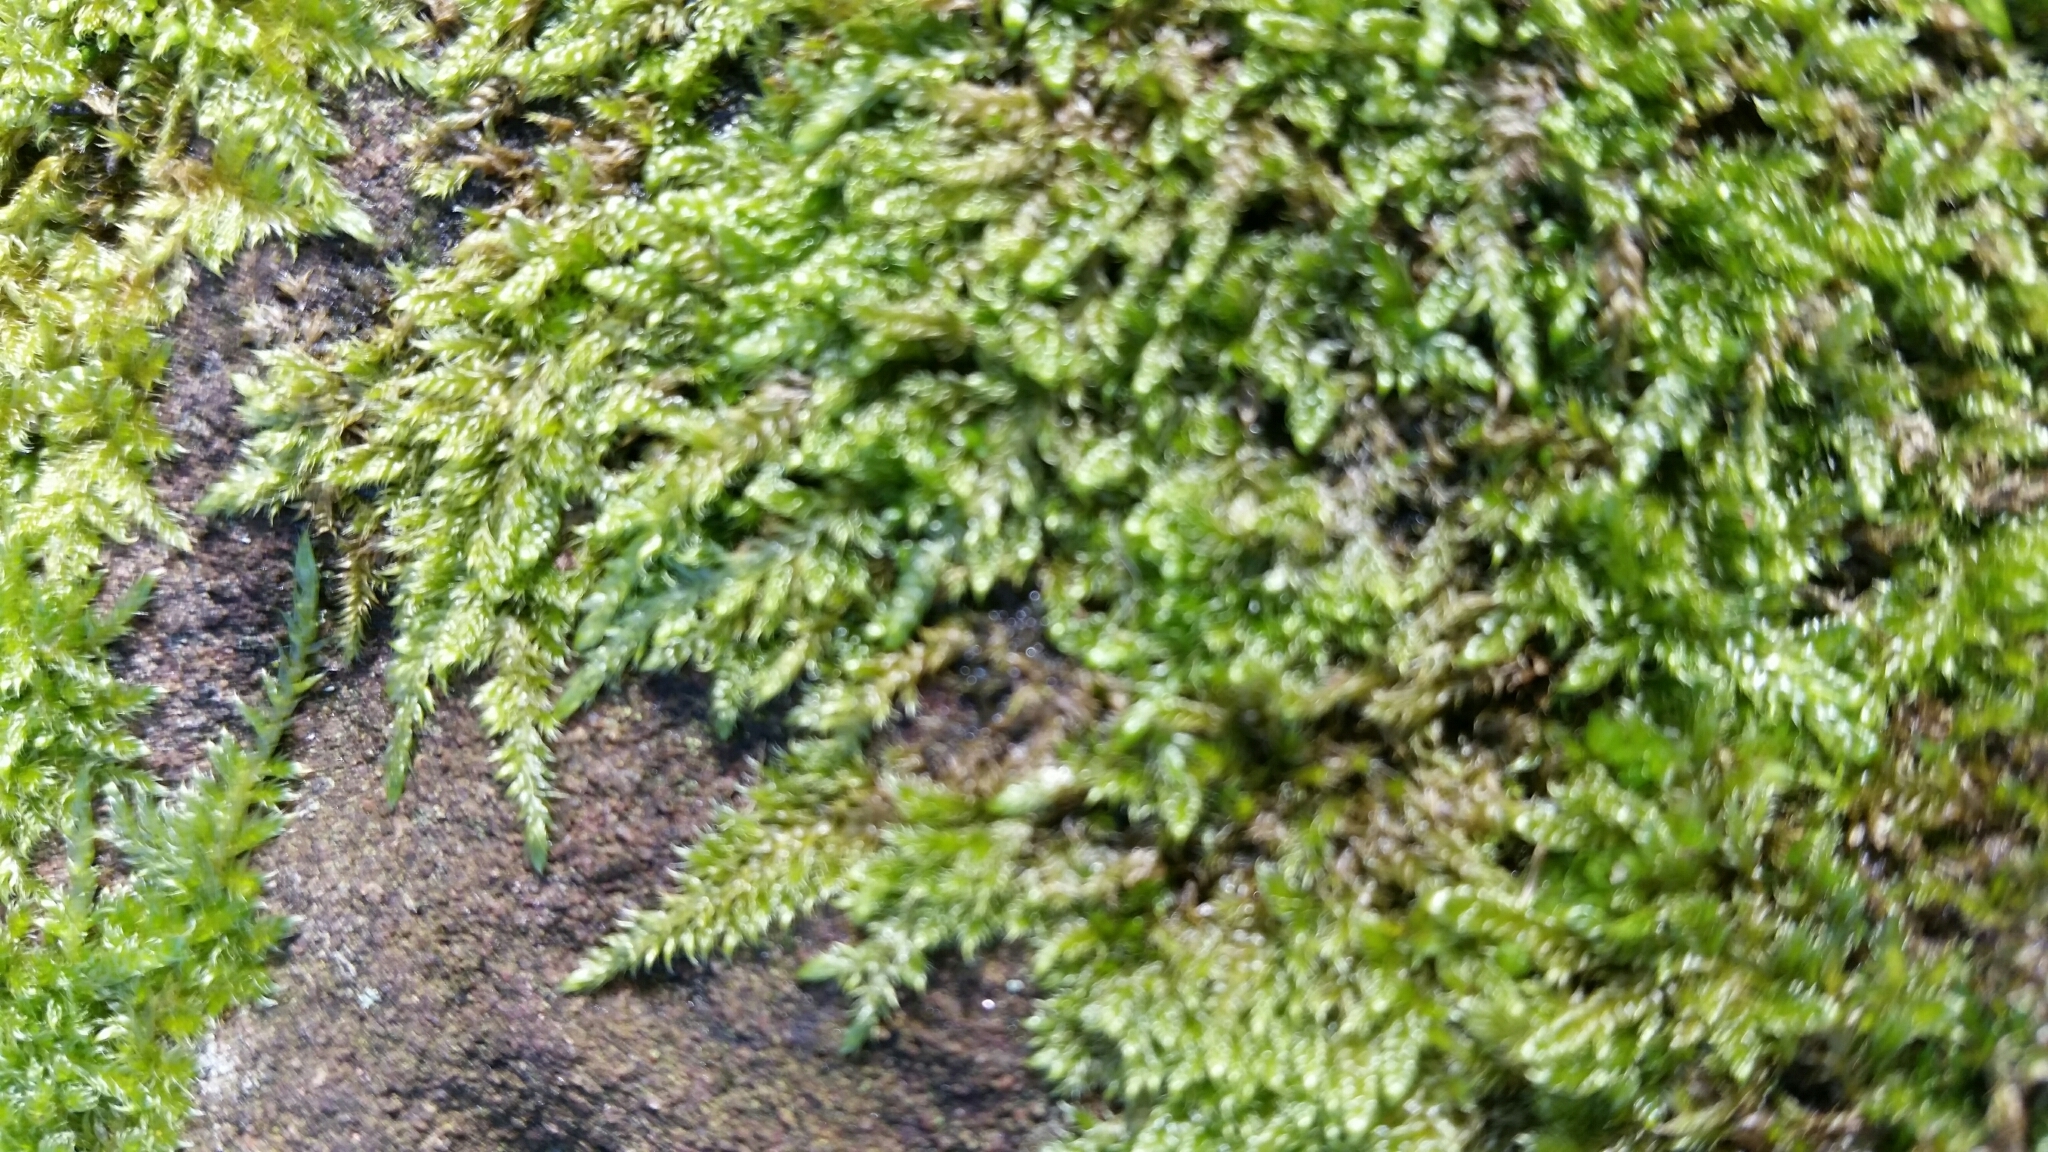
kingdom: Plantae
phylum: Bryophyta
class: Bryopsida
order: Hypnales
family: Hypnaceae
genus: Hypnum
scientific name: Hypnum cupressiforme
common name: Cypress-leaved plait-moss
